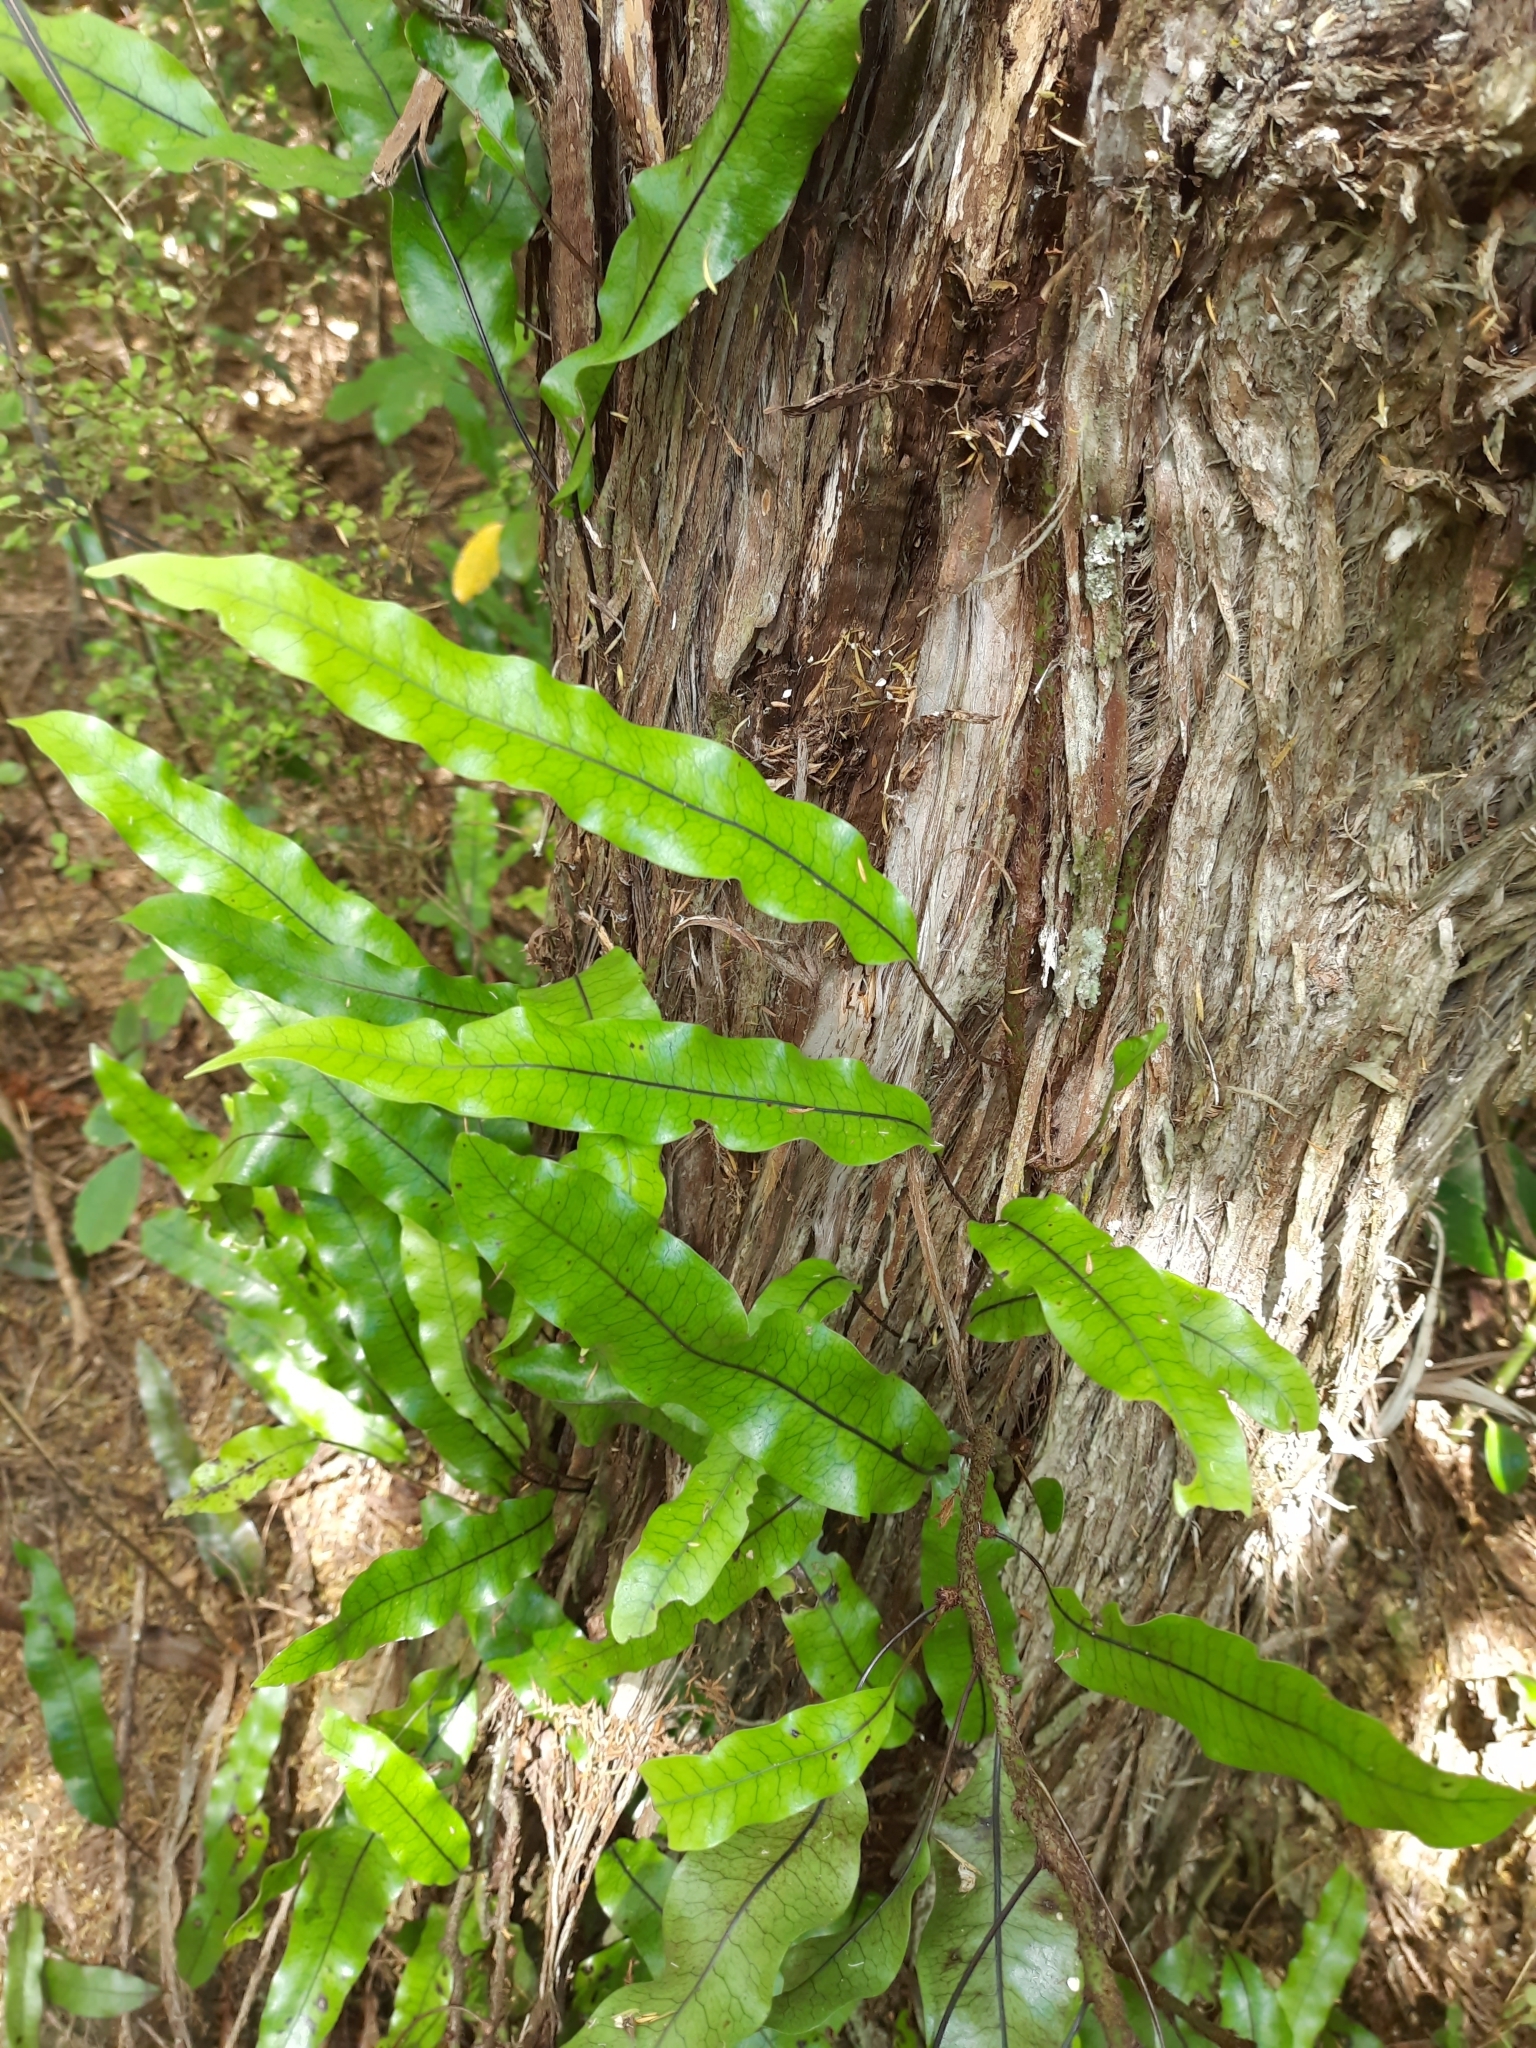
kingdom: Plantae
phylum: Tracheophyta
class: Polypodiopsida
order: Polypodiales
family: Polypodiaceae
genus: Lecanopteris
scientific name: Lecanopteris pustulata
